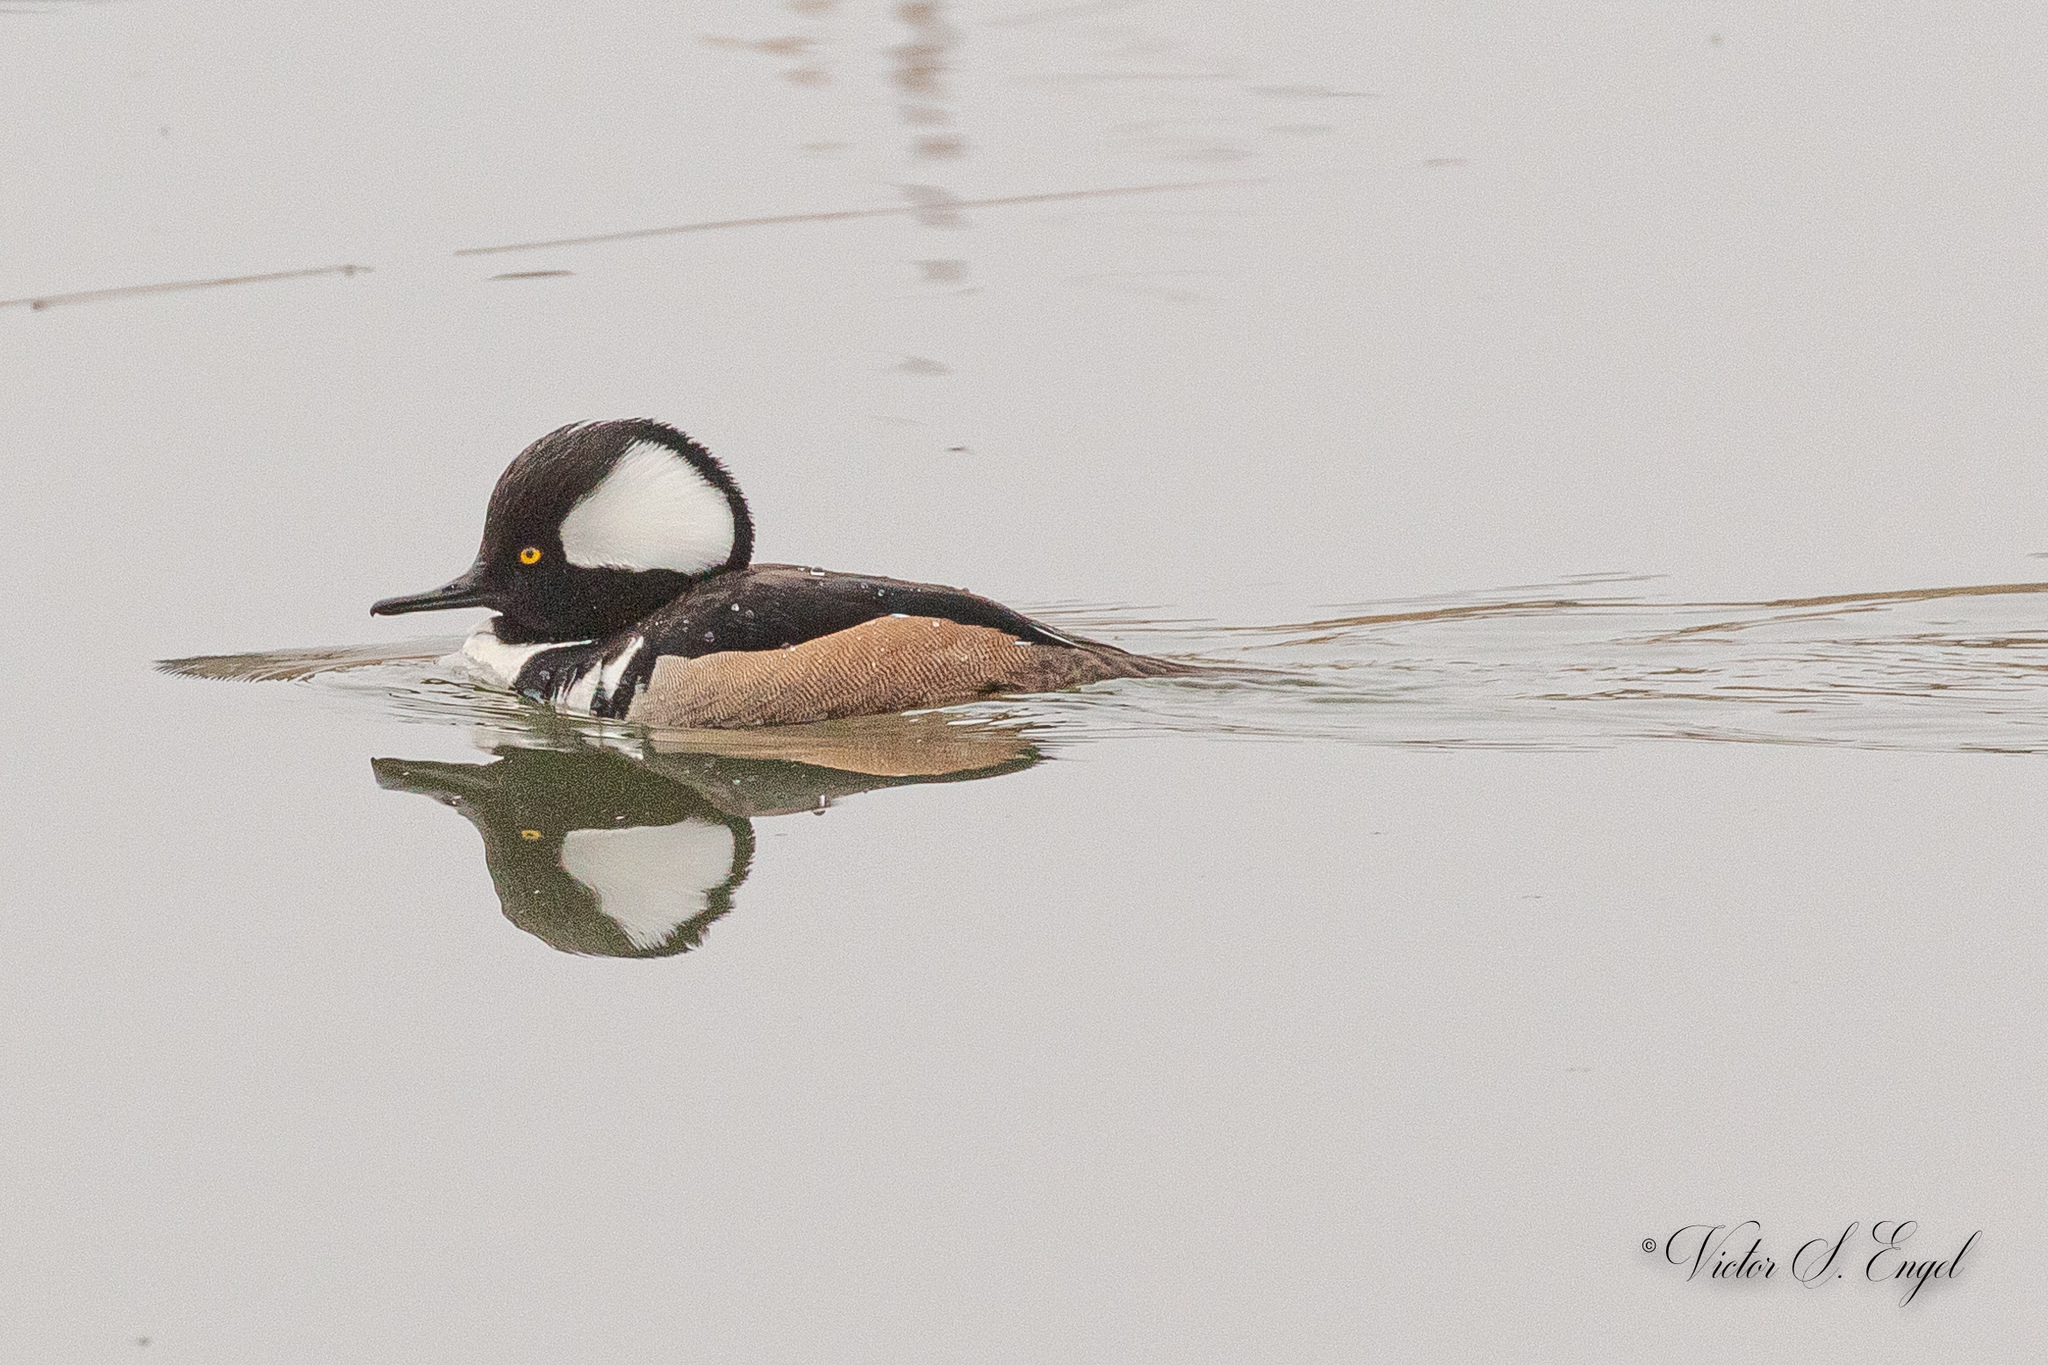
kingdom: Animalia
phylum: Chordata
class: Aves
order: Anseriformes
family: Anatidae
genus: Lophodytes
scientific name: Lophodytes cucullatus
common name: Hooded merganser
